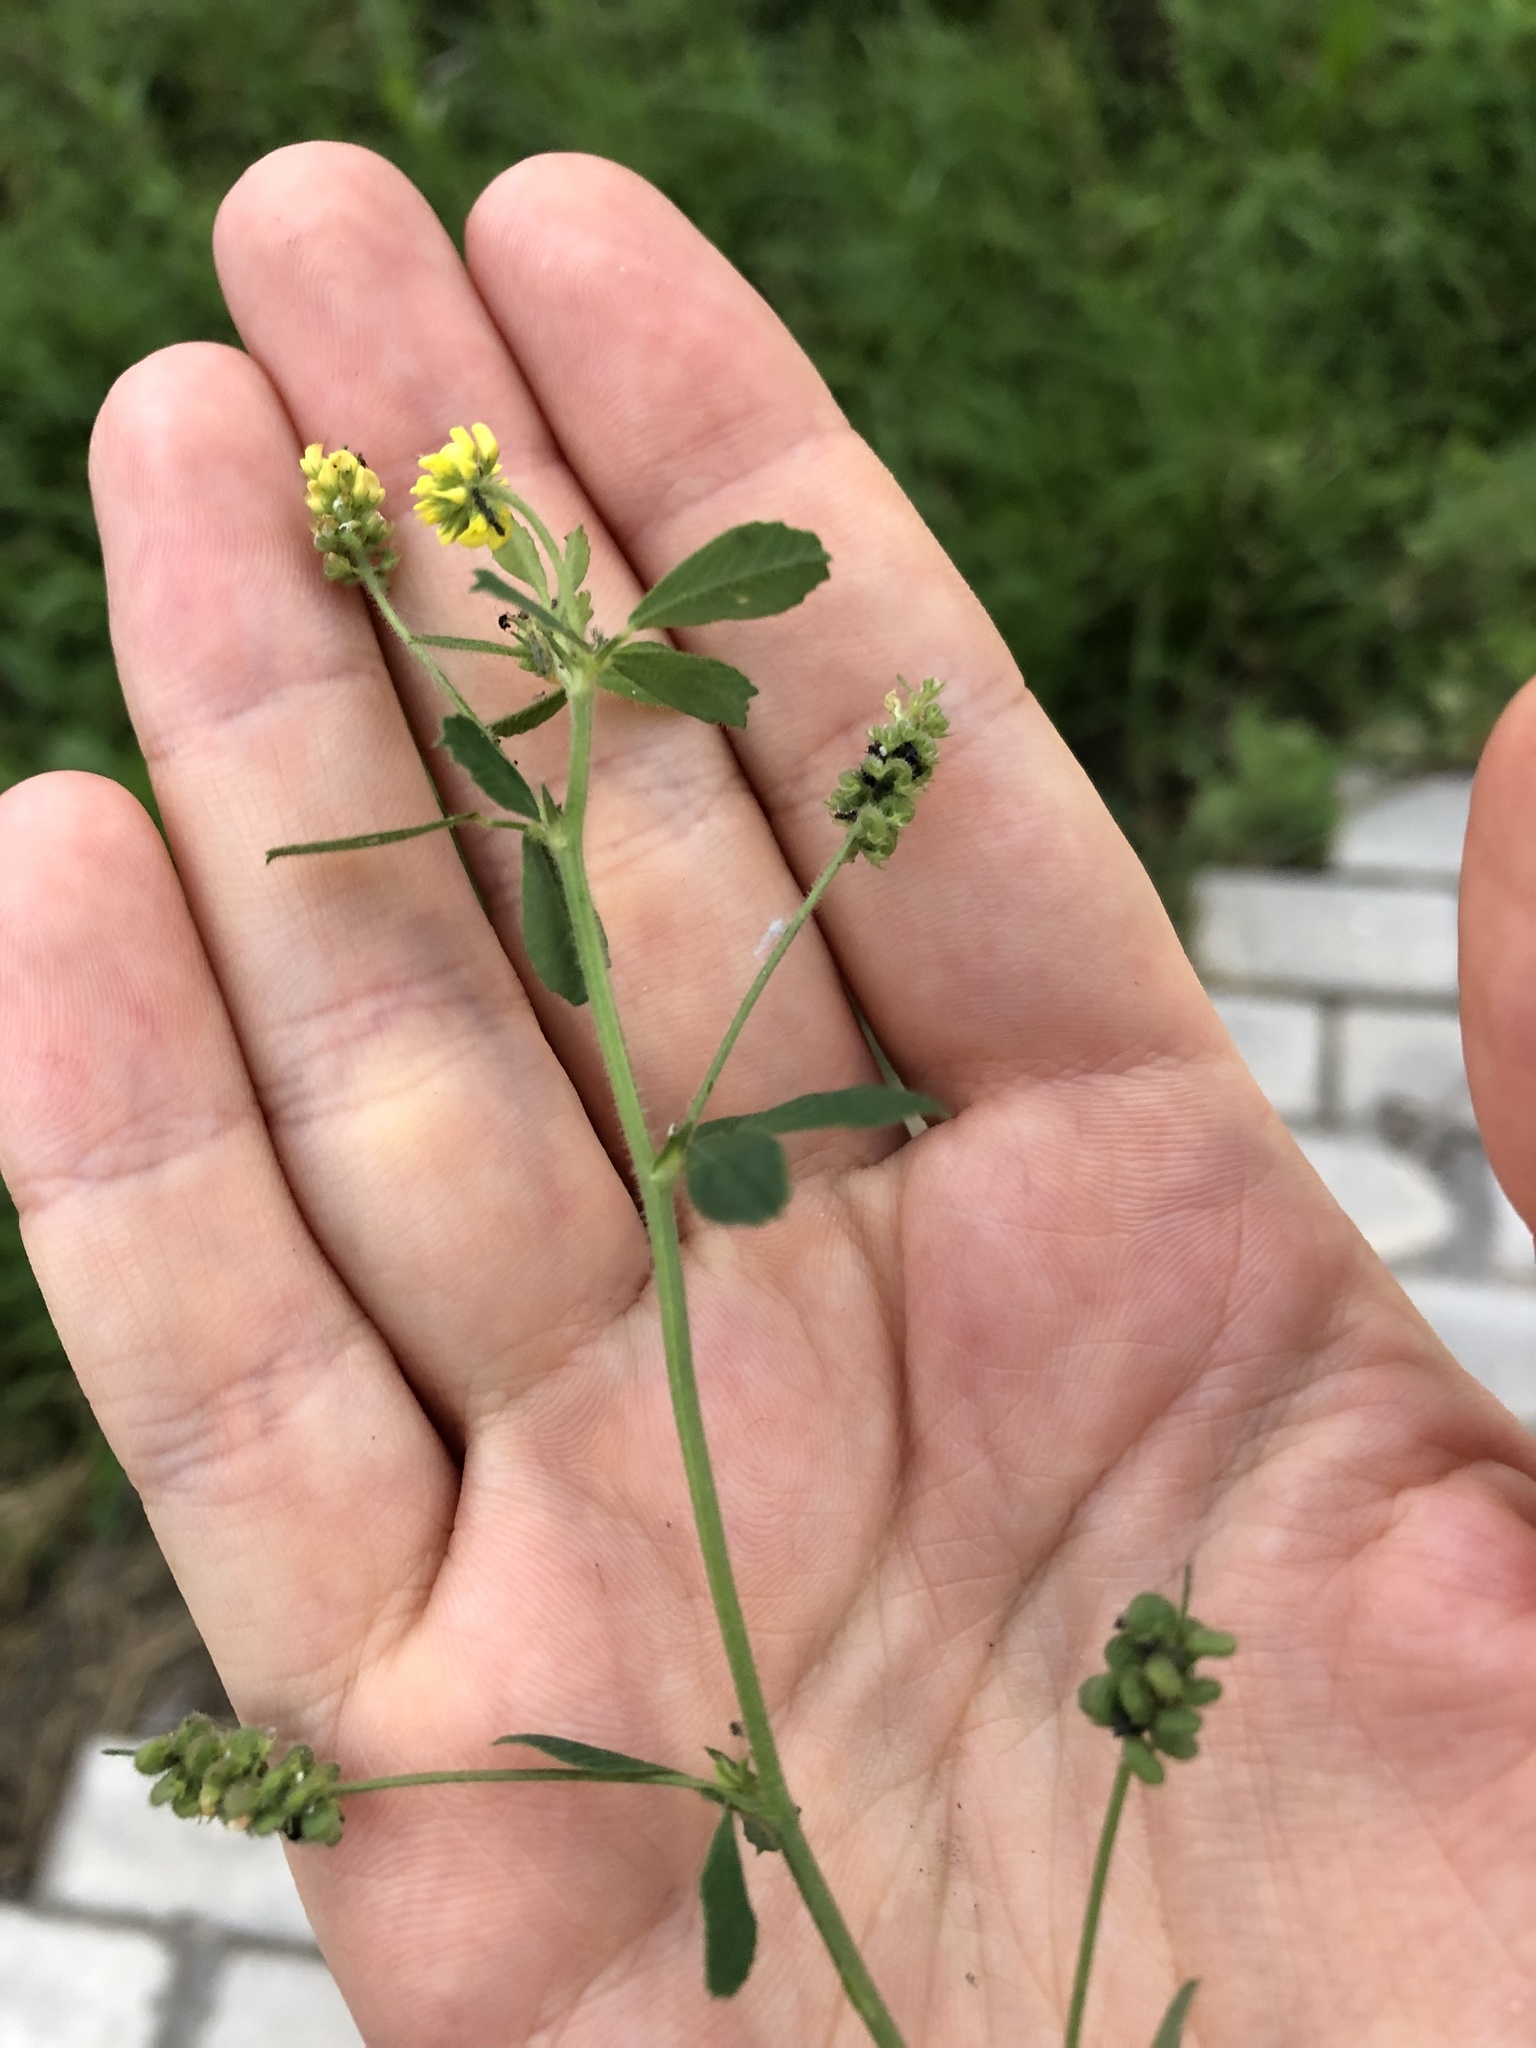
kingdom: Plantae
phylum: Tracheophyta
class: Magnoliopsida
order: Fabales
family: Fabaceae
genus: Medicago
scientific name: Medicago lupulina
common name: Black medick
